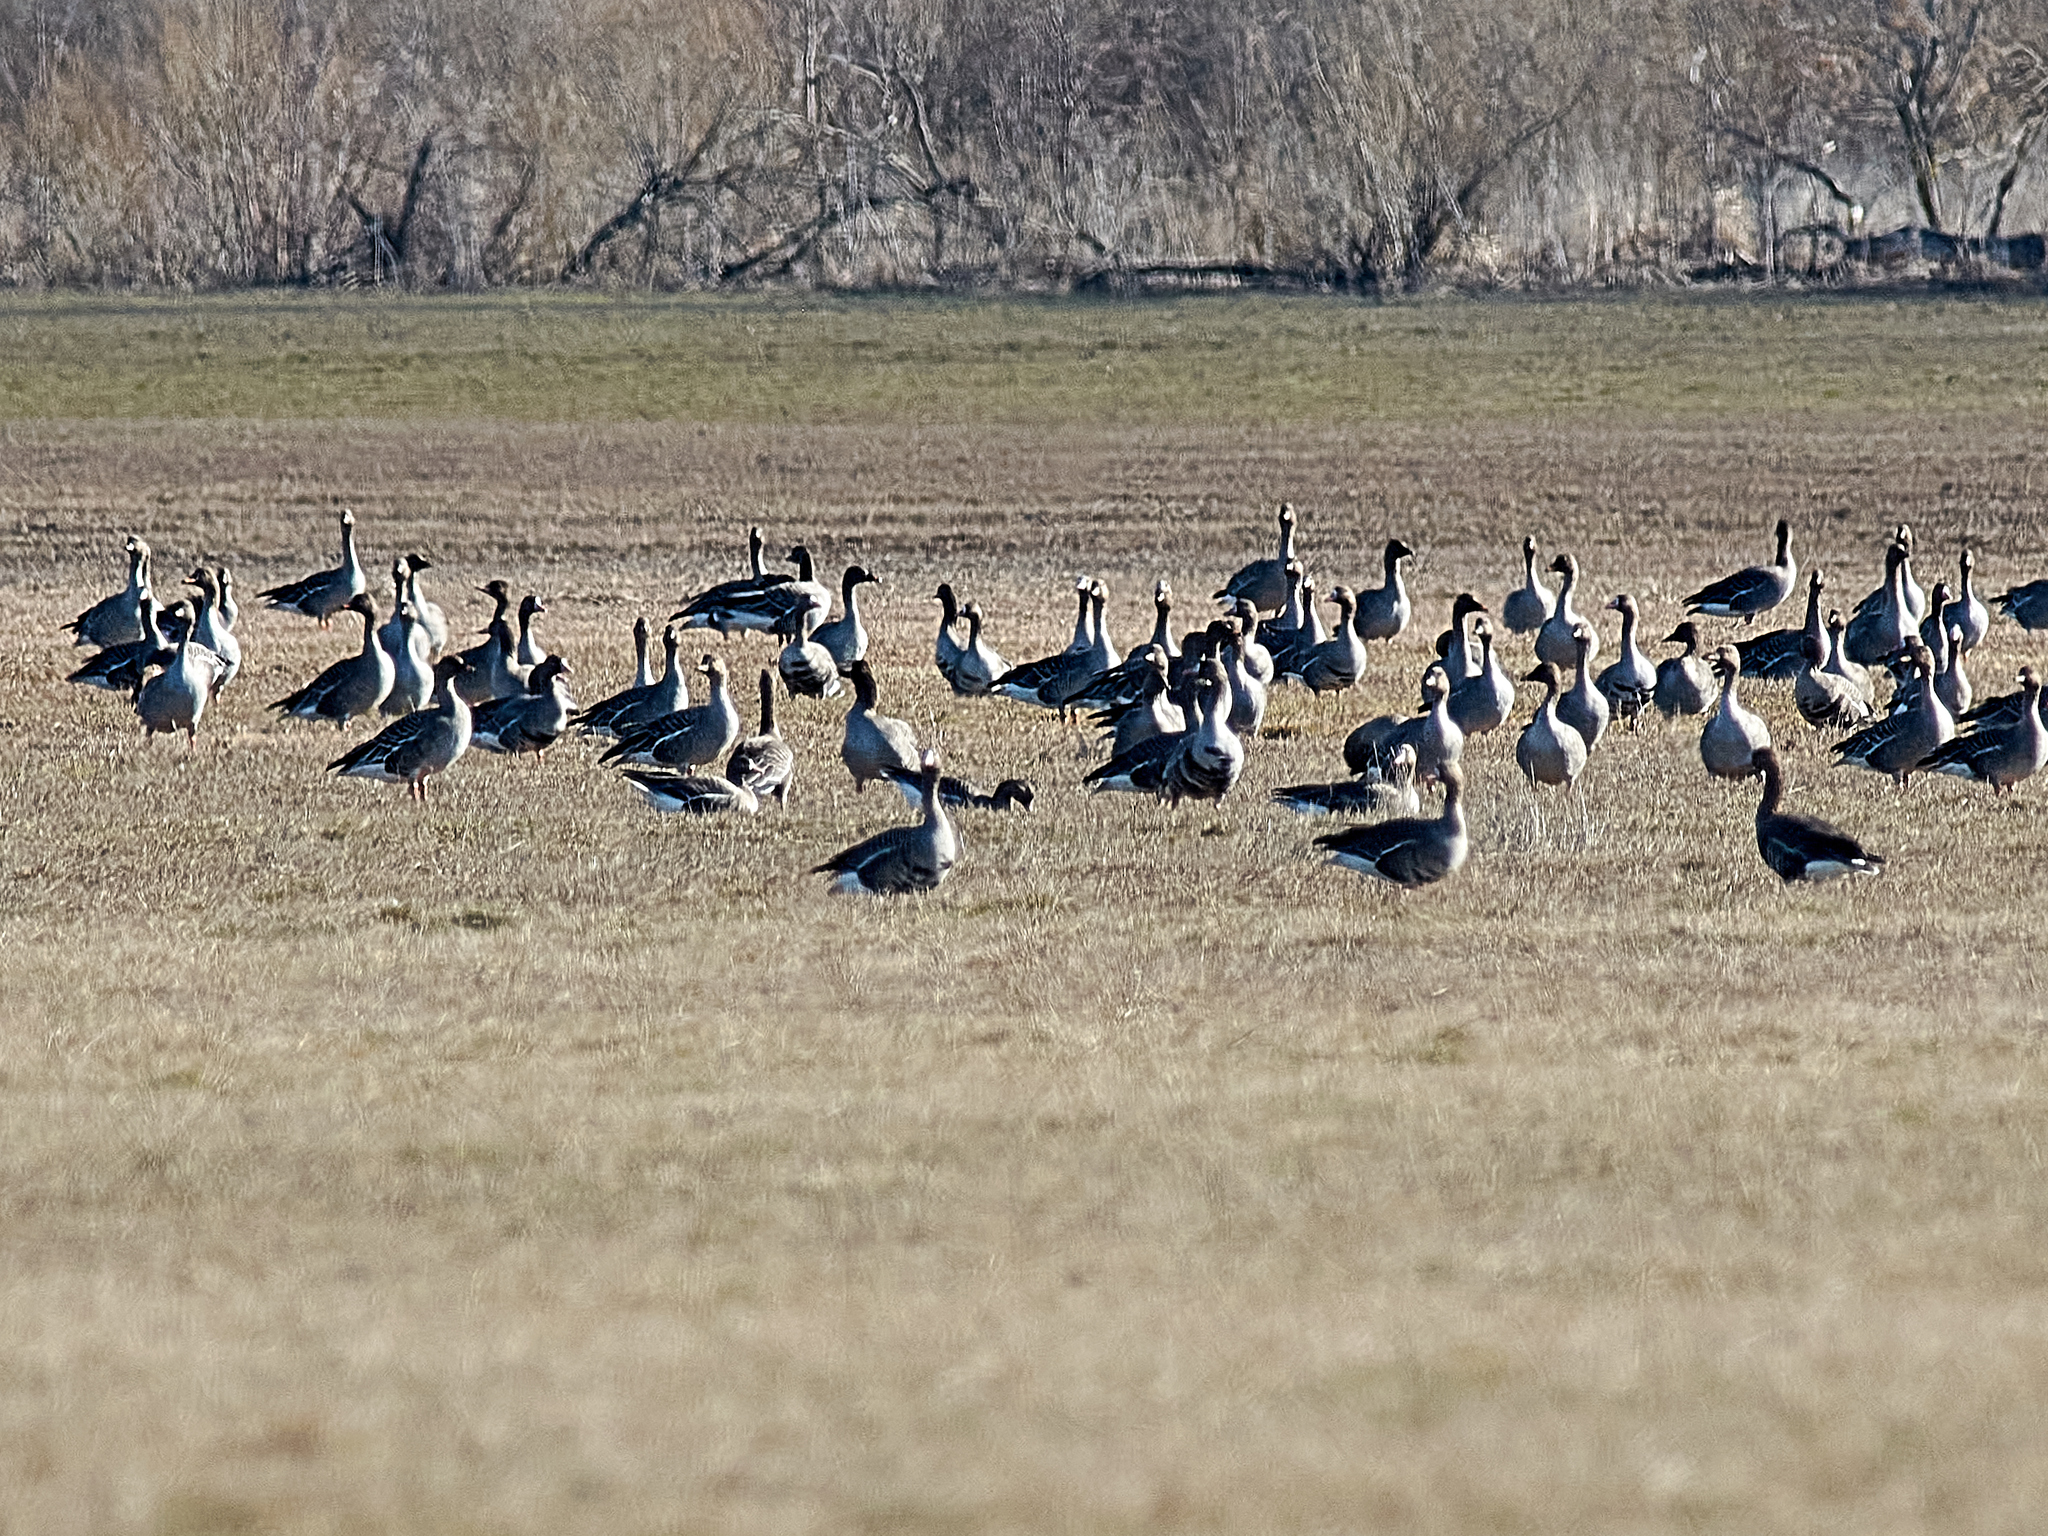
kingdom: Animalia
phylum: Chordata
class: Aves
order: Anseriformes
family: Anatidae
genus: Anser
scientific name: Anser fabalis
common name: Bean goose
